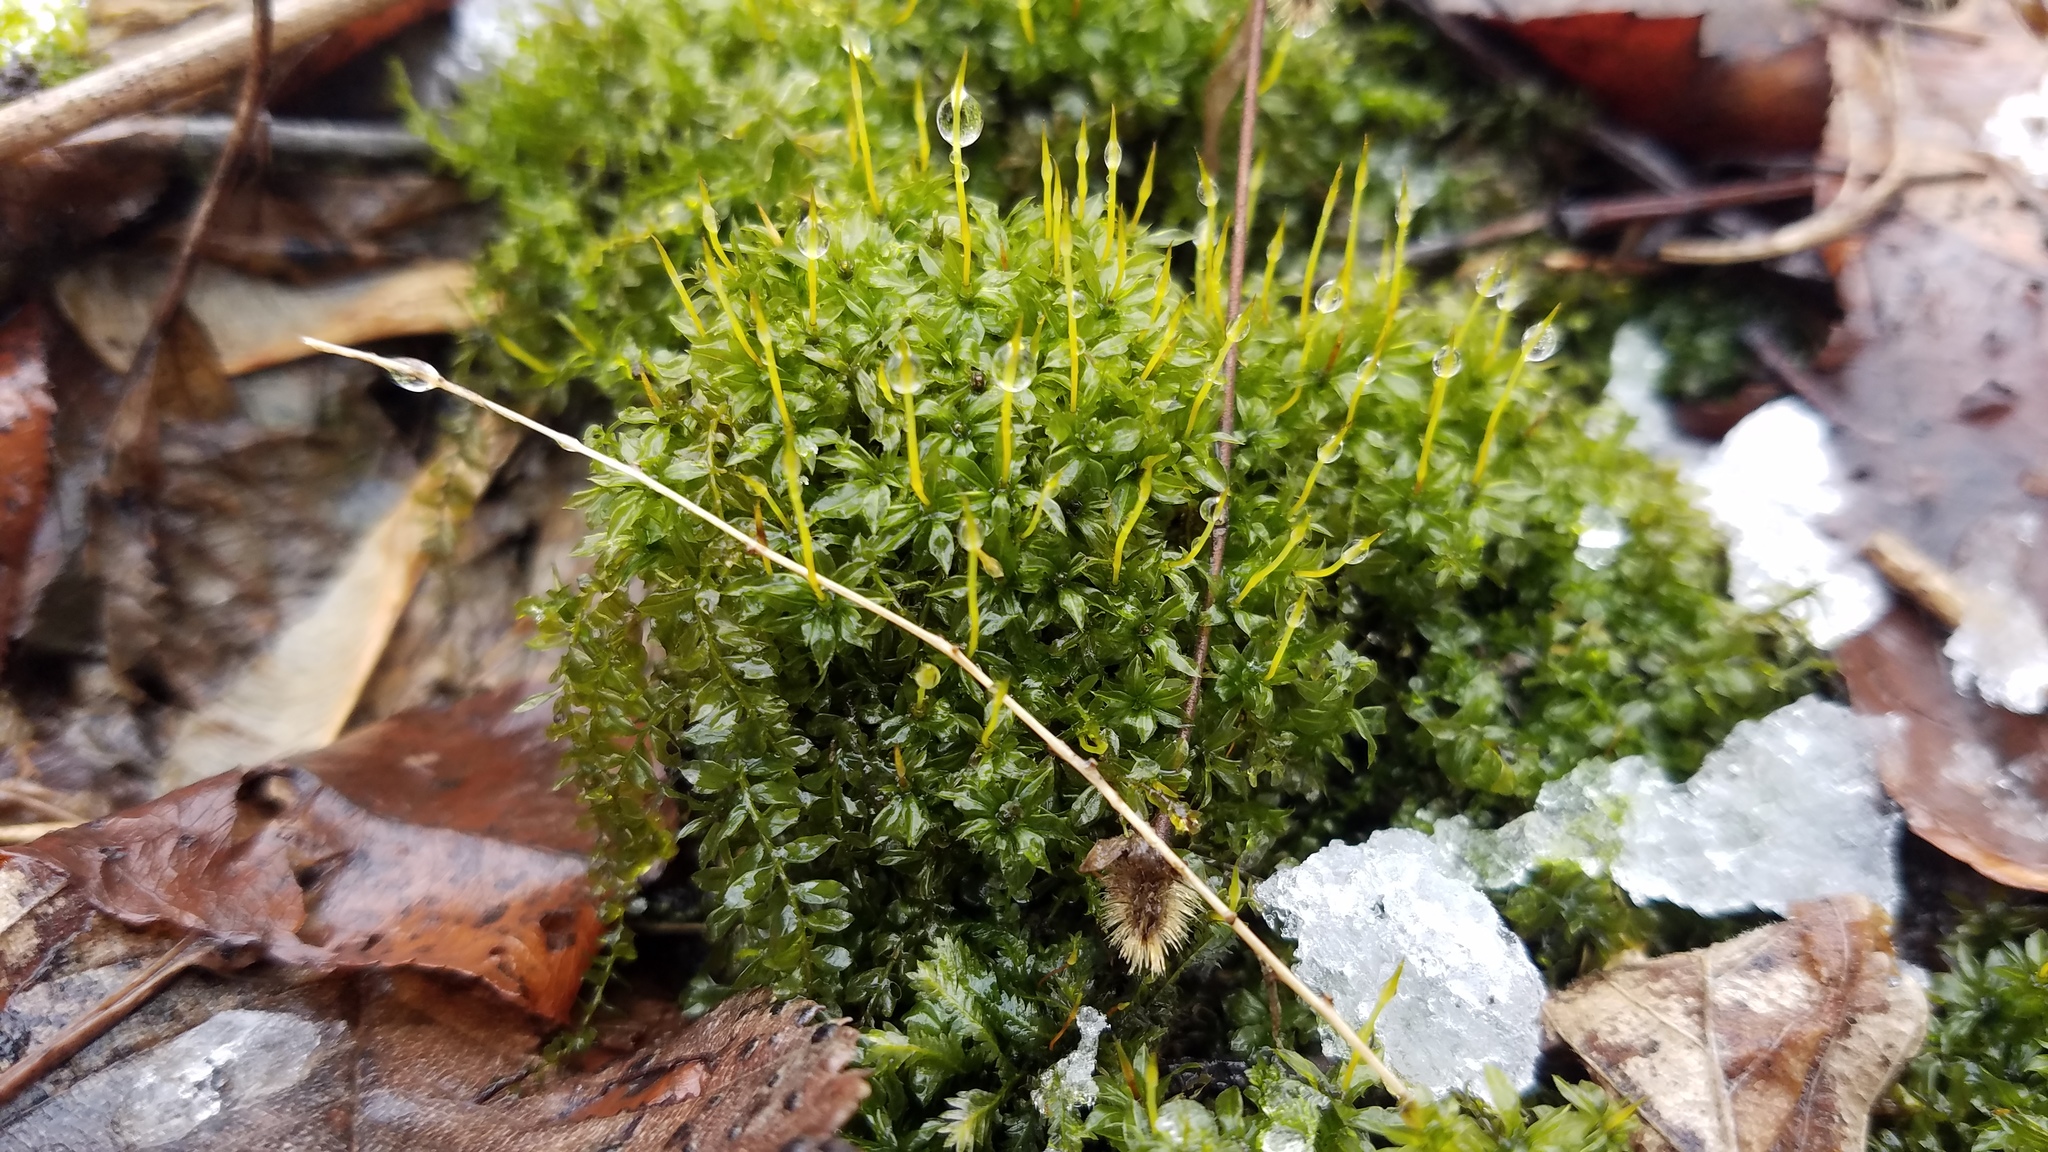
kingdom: Plantae
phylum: Bryophyta
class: Bryopsida
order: Bryales
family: Mniaceae
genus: Plagiomnium
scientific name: Plagiomnium cuspidatum
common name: Woodsy leafy moss
